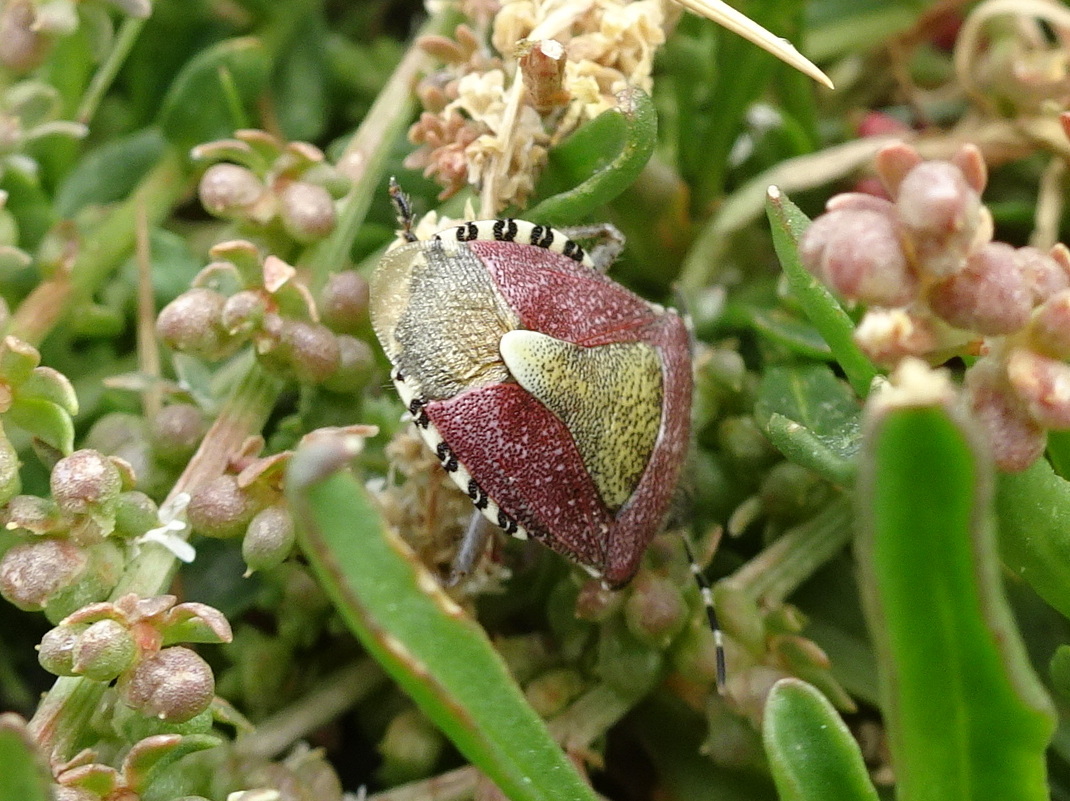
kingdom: Animalia
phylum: Arthropoda
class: Insecta
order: Hemiptera
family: Pentatomidae
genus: Dolycoris
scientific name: Dolycoris baccarum
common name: Sloe bug
